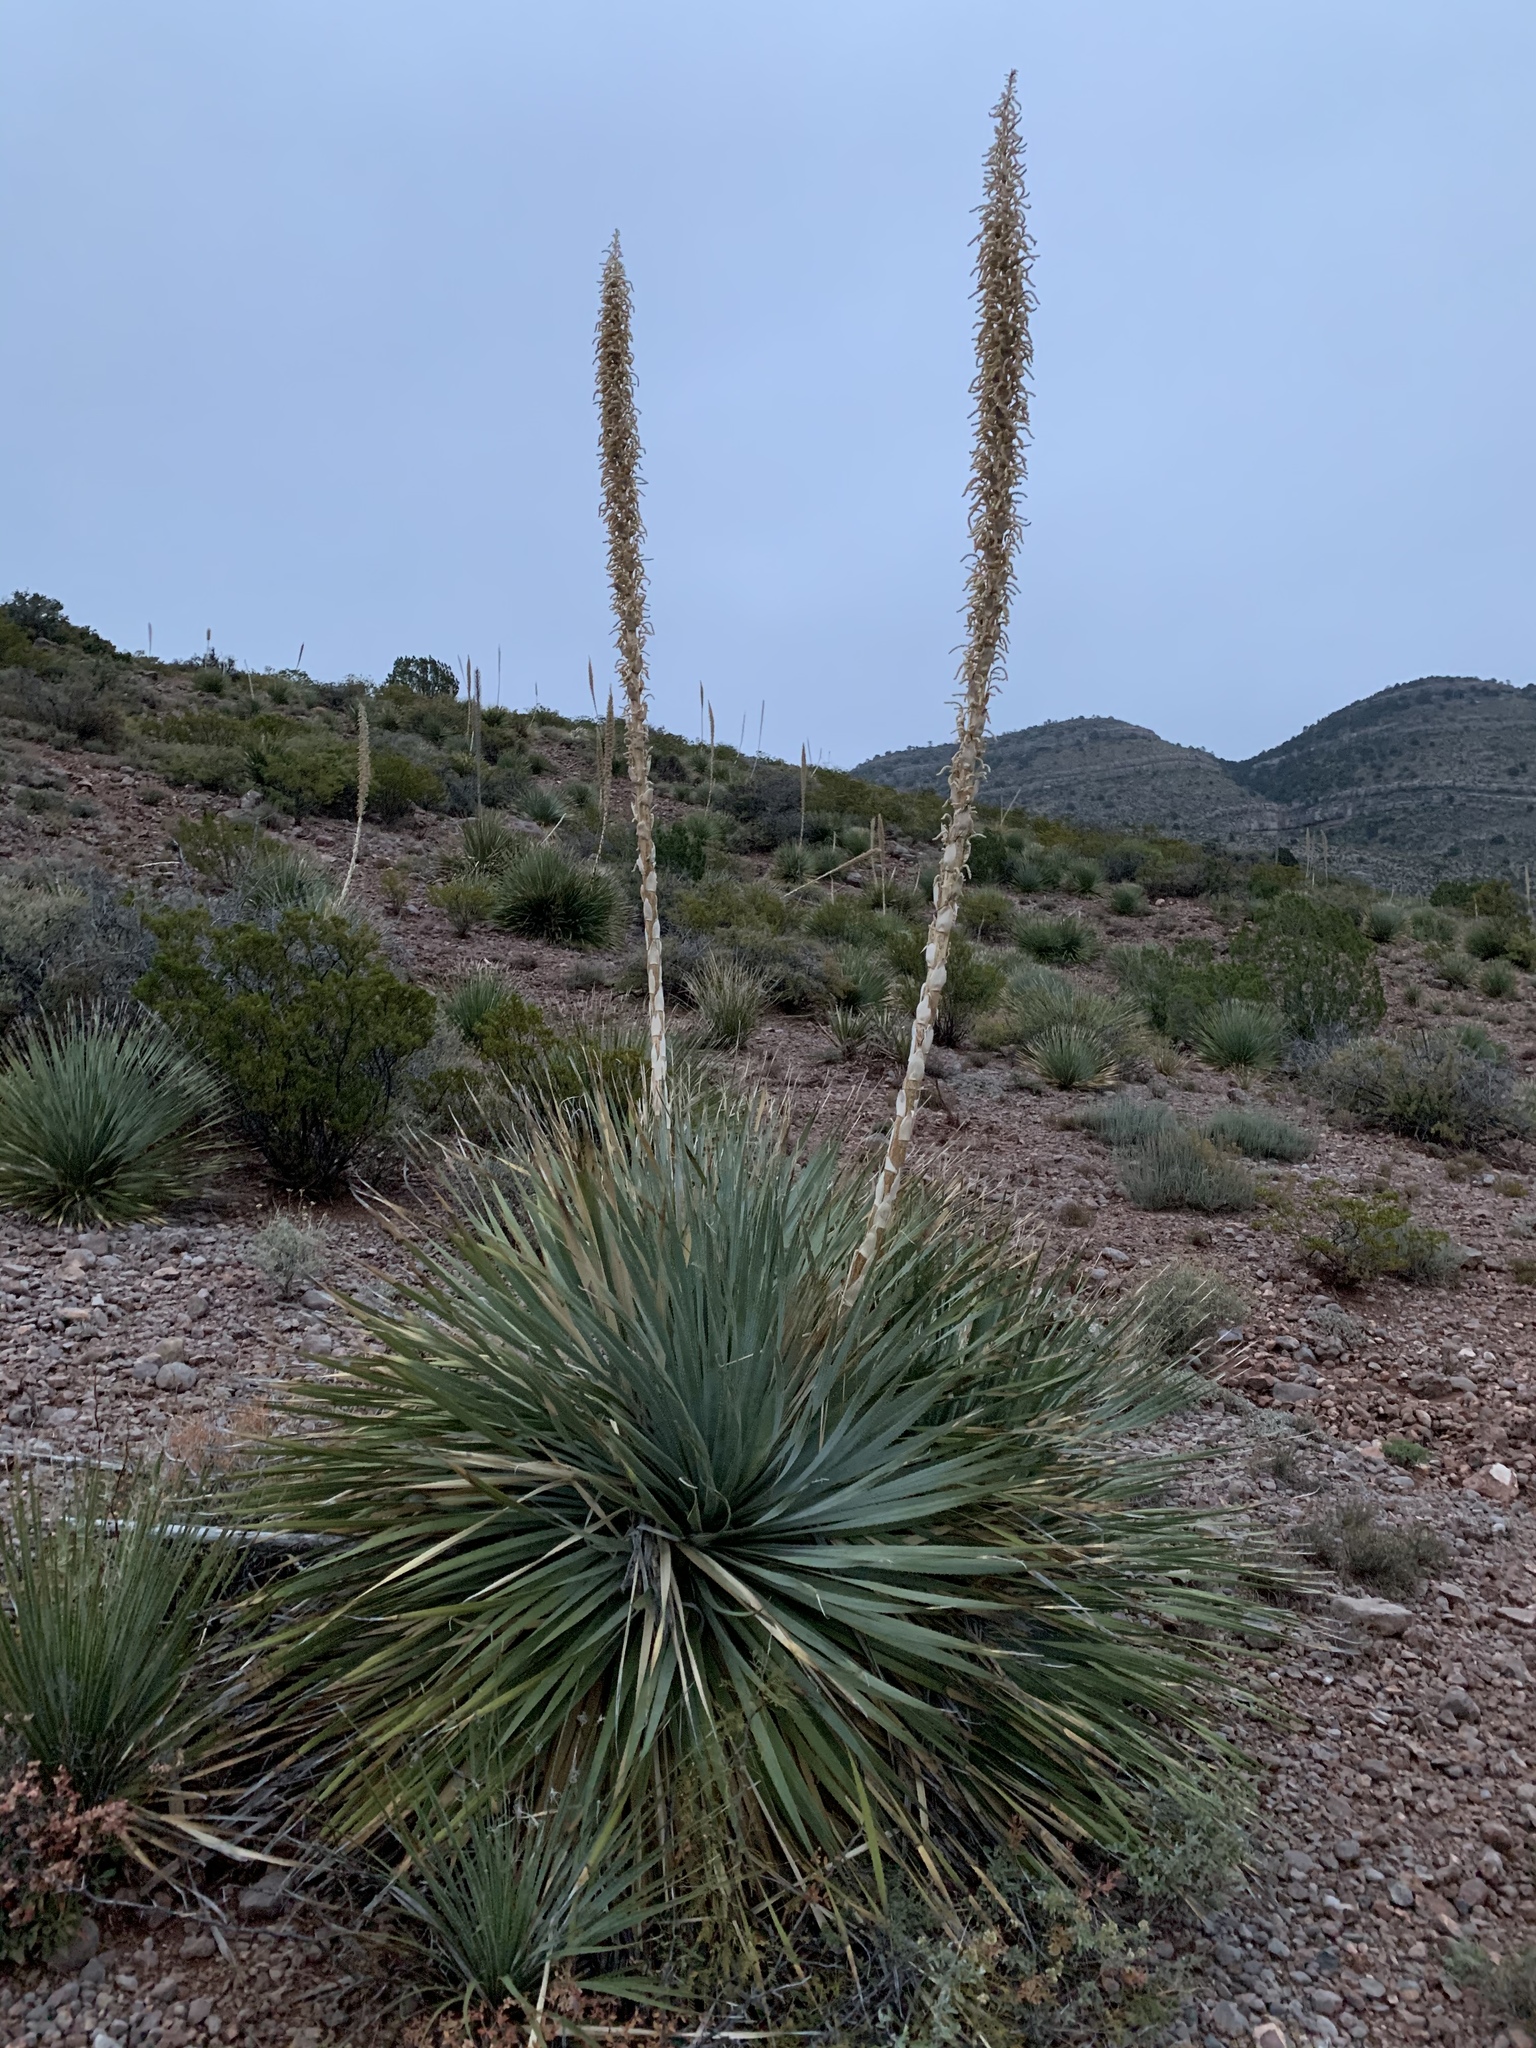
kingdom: Plantae
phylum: Tracheophyta
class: Liliopsida
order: Asparagales
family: Asparagaceae
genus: Dasylirion
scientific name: Dasylirion wheeleri
